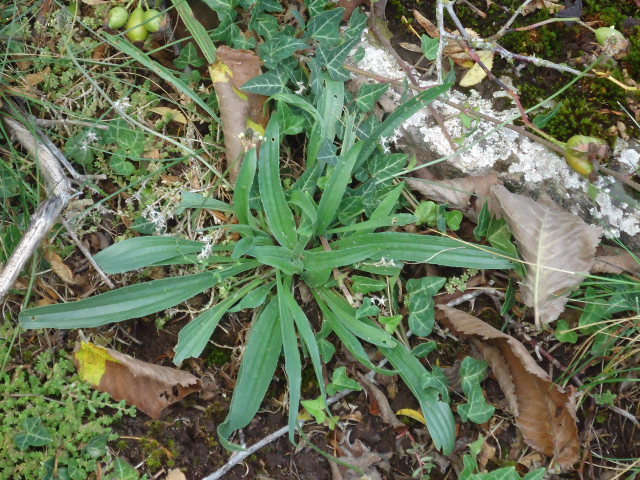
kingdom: Plantae
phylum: Tracheophyta
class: Magnoliopsida
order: Lamiales
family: Plantaginaceae
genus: Plantago
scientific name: Plantago lanceolata
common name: Ribwort plantain
